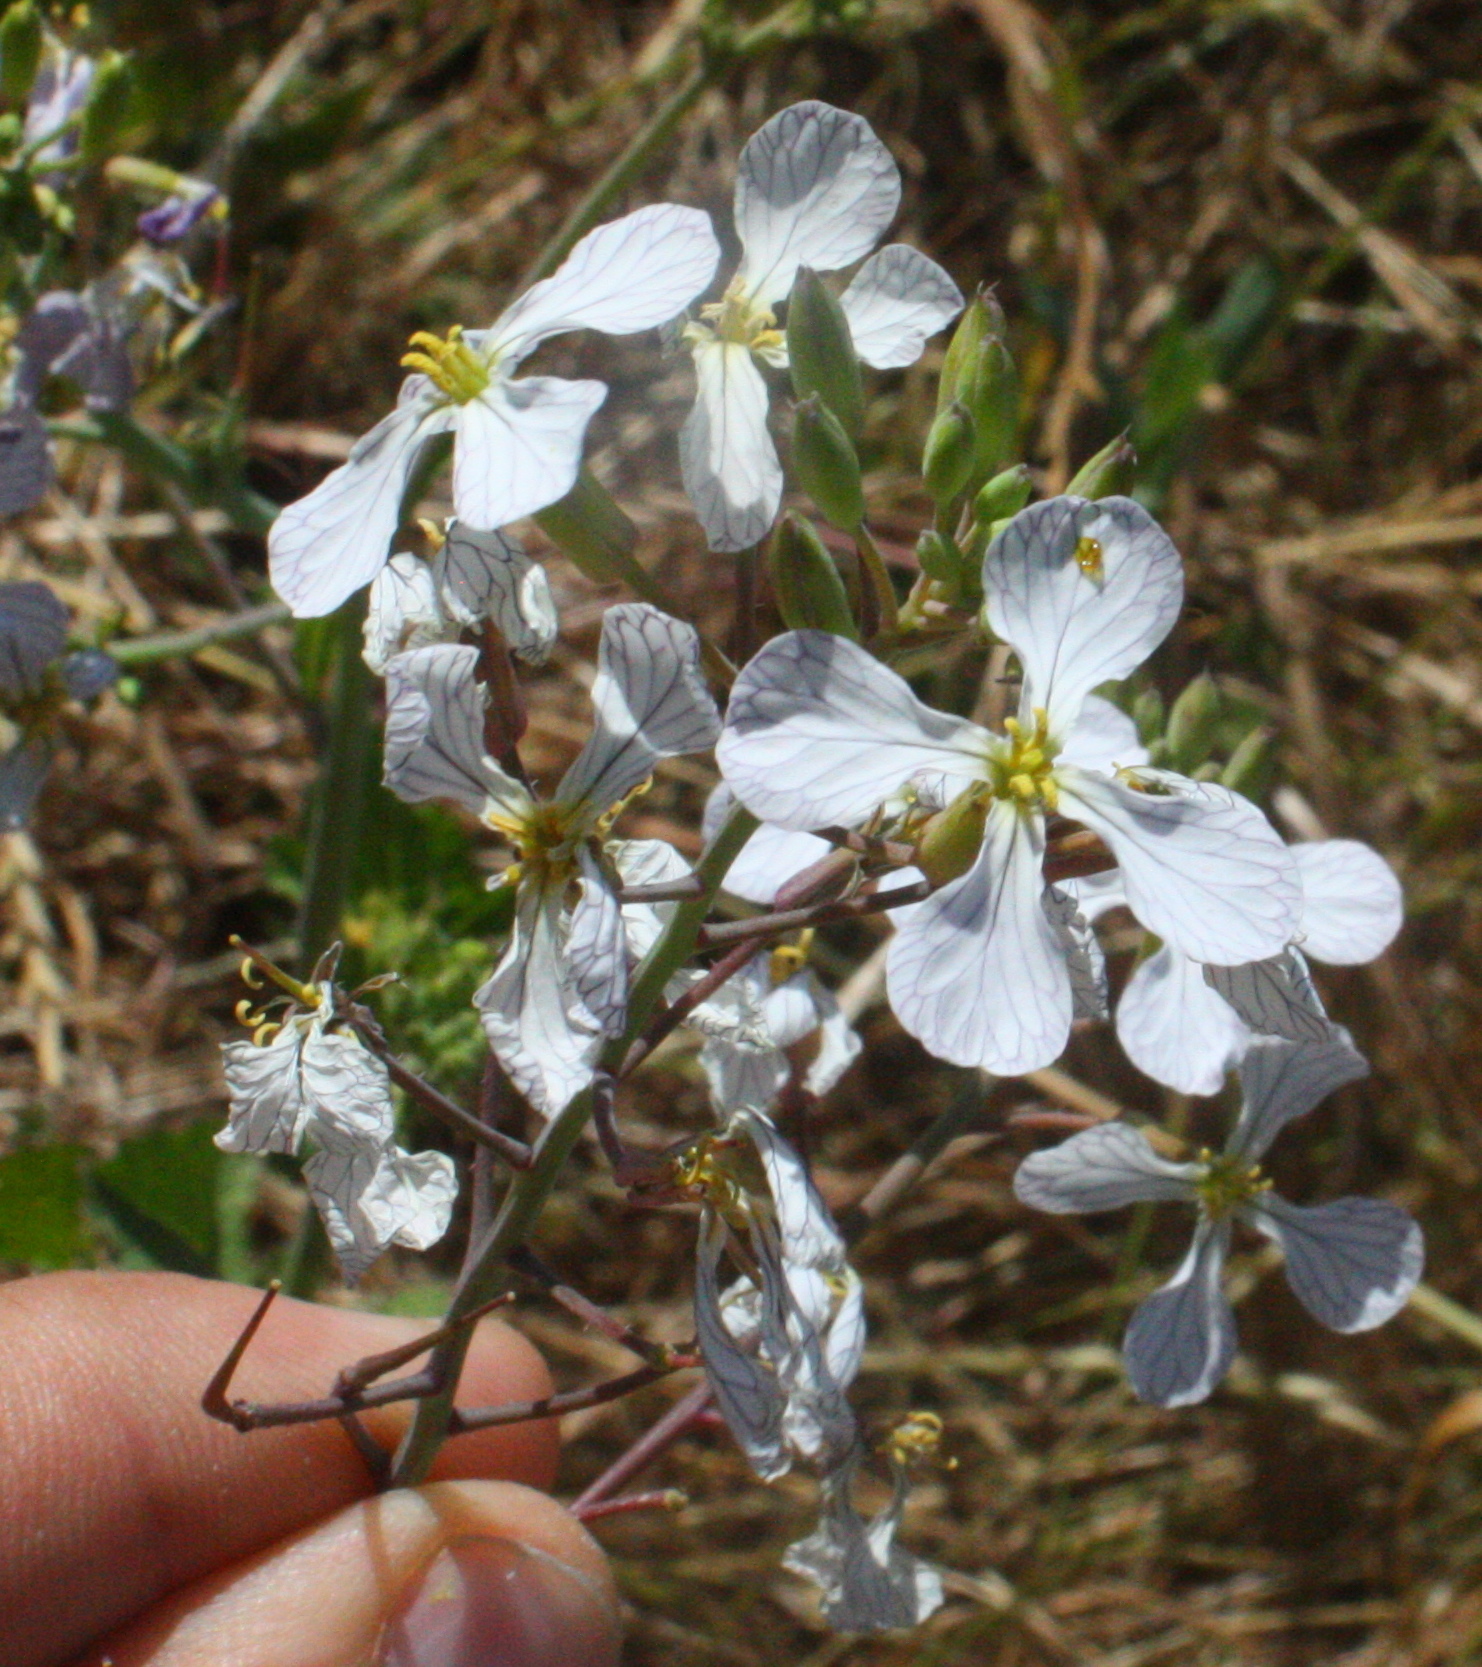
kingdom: Plantae
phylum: Tracheophyta
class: Magnoliopsida
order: Brassicales
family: Brassicaceae
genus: Raphanus
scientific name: Raphanus sativus
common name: Cultivated radish
